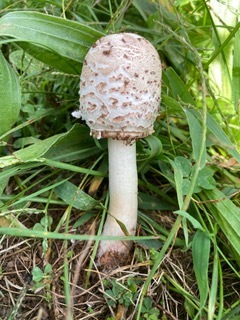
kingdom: Fungi
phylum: Basidiomycota
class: Agaricomycetes
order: Agaricales
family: Agaricaceae
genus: Coprinus
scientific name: Coprinus comatus
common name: Lawyer's wig
